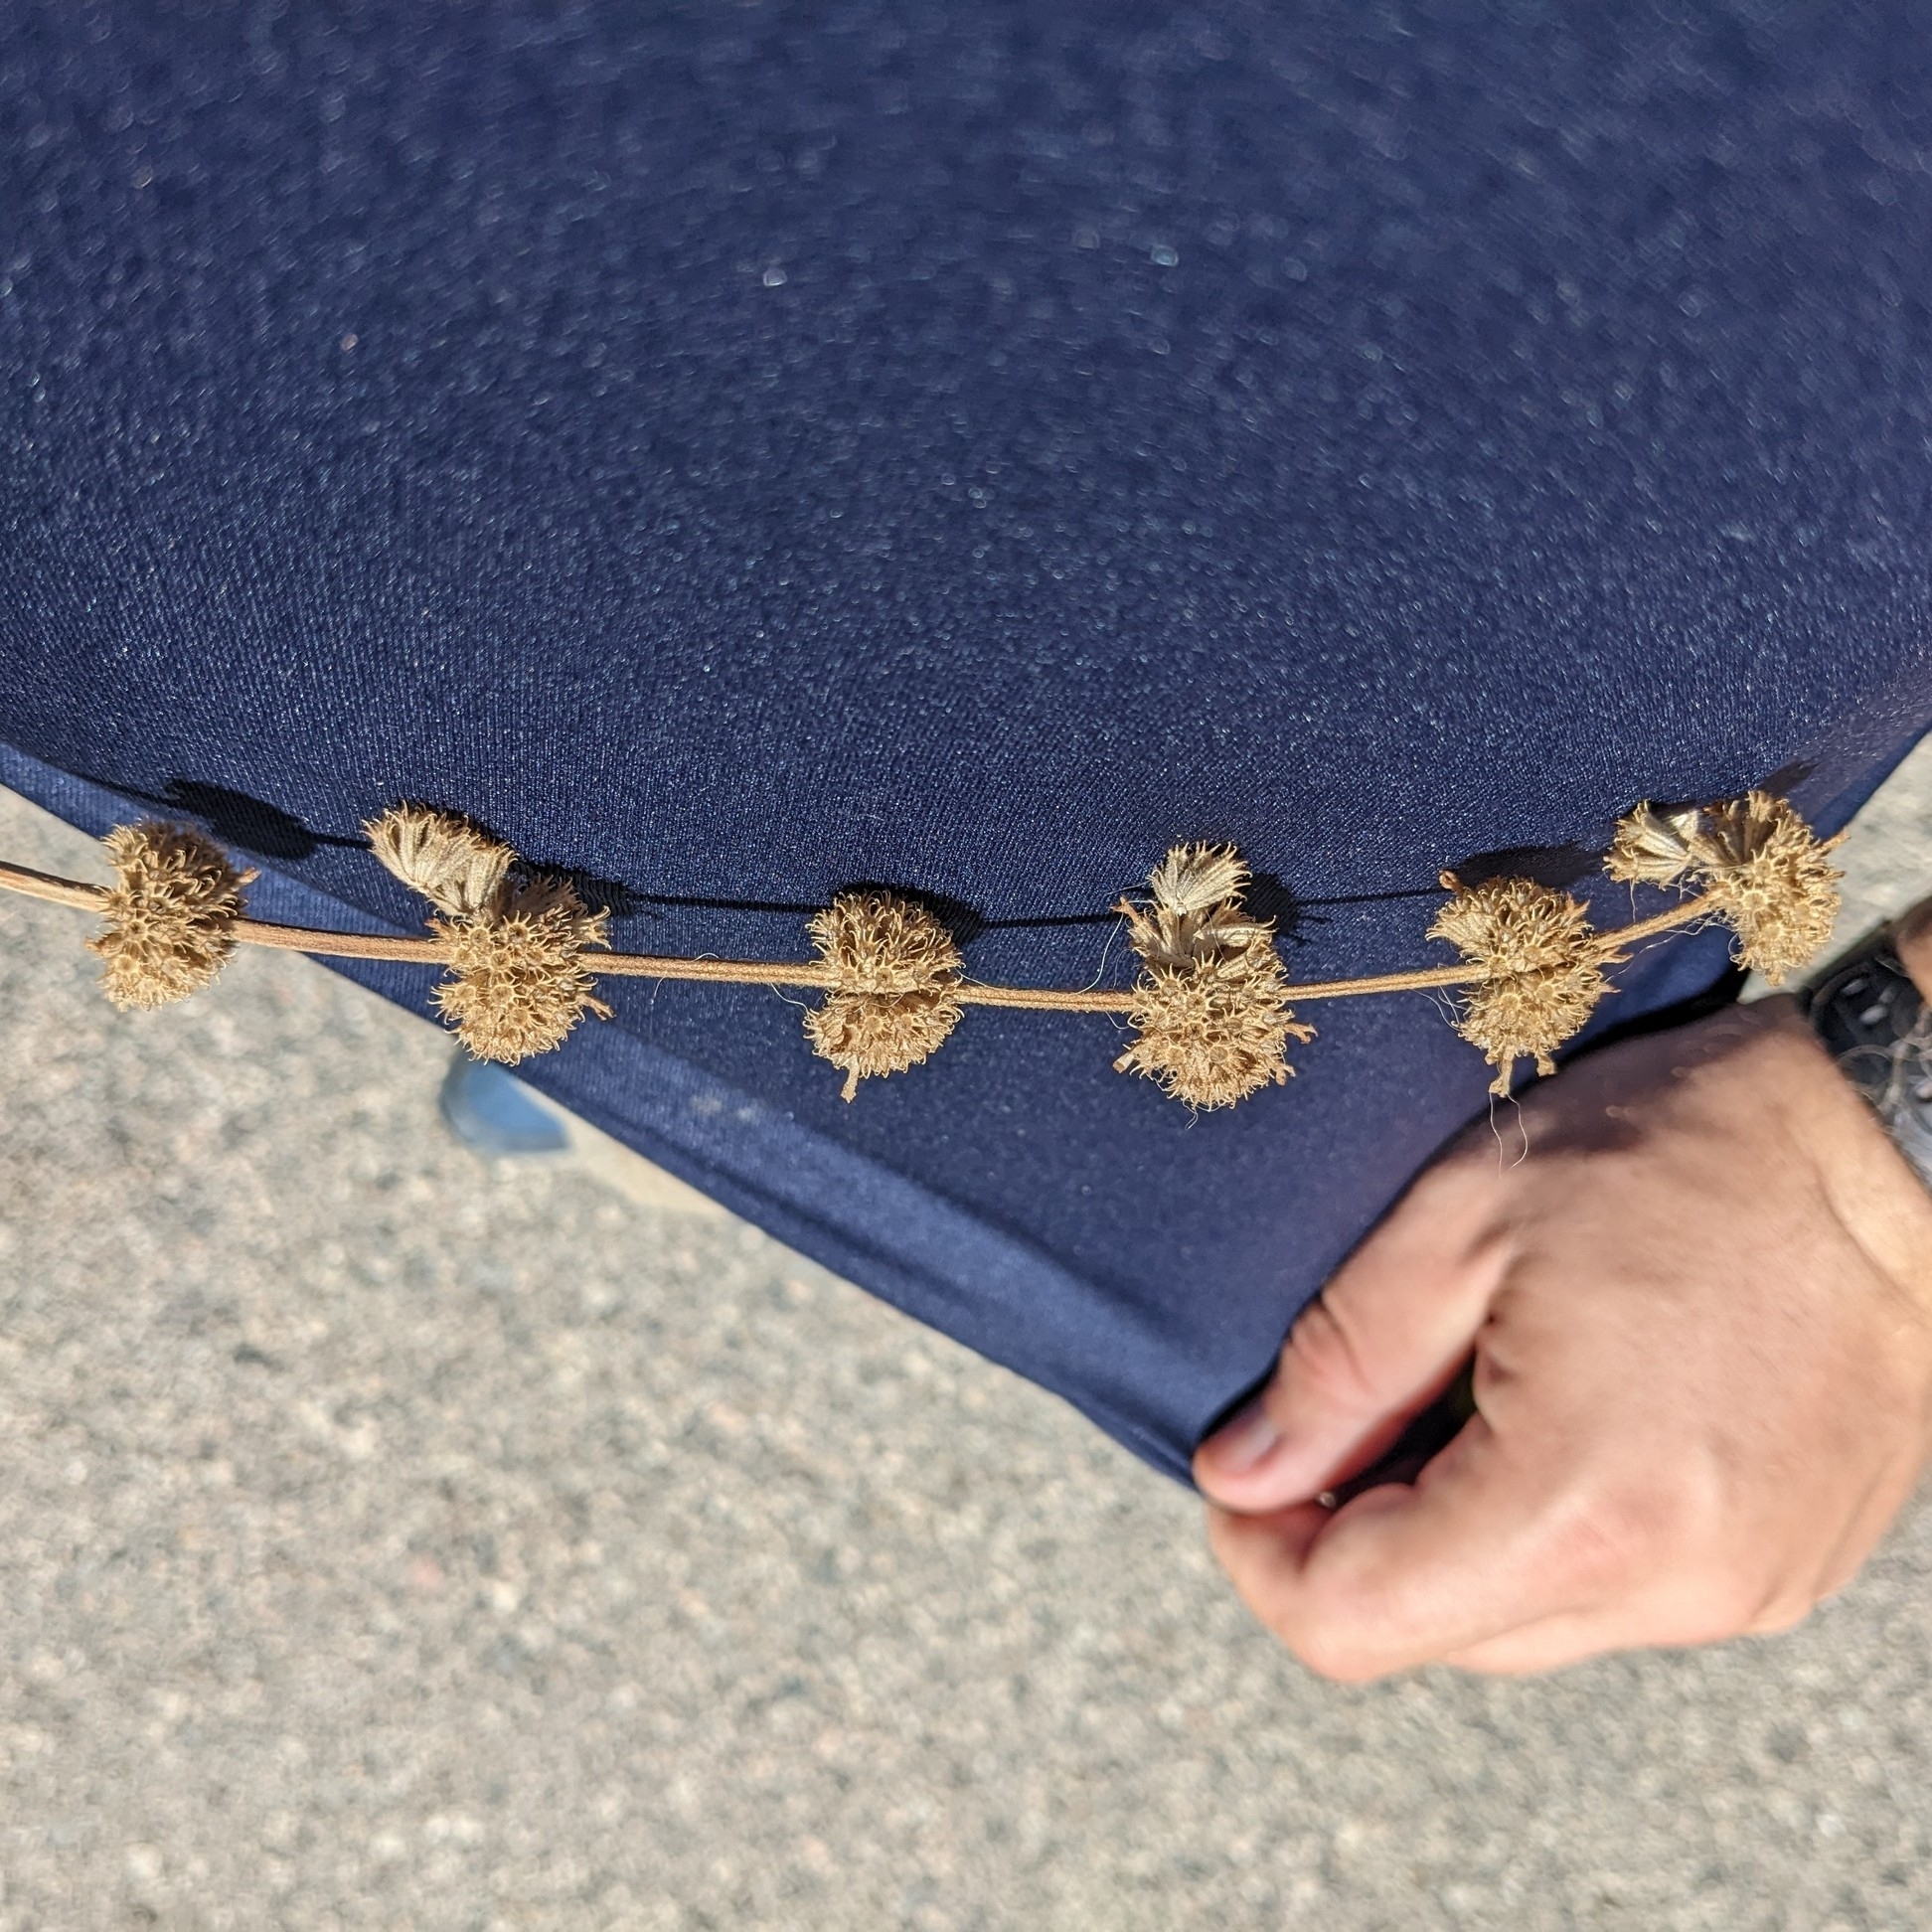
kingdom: Plantae
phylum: Tracheophyta
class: Magnoliopsida
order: Lamiales
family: Lamiaceae
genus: Marrubium
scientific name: Marrubium vulgare
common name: Horehound
